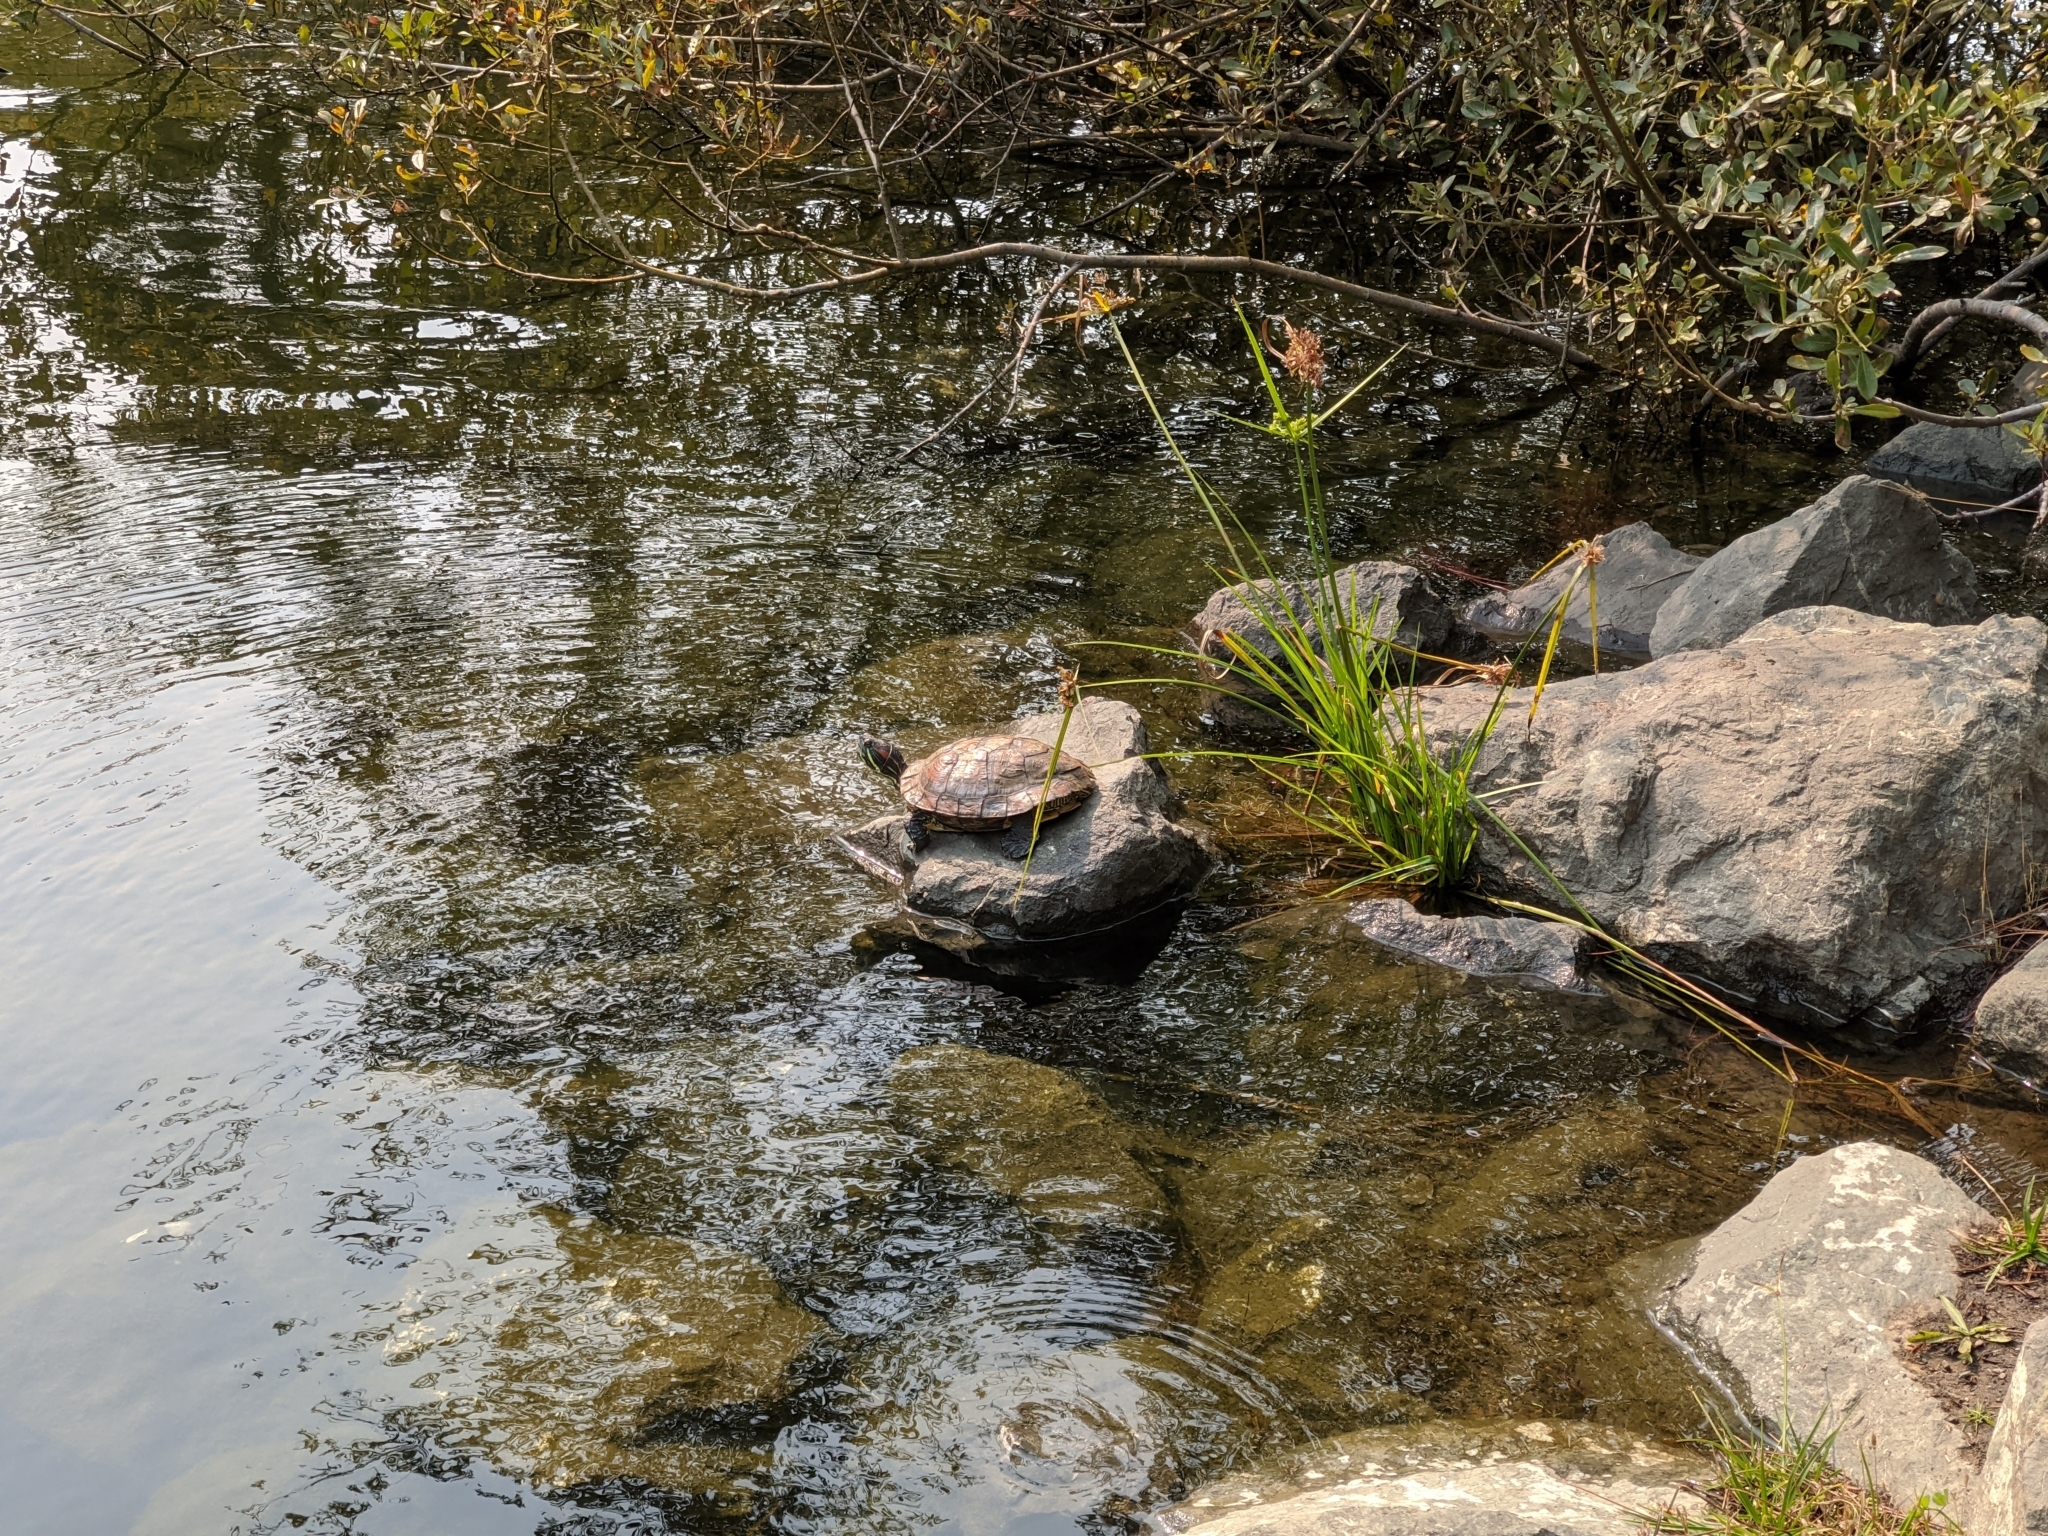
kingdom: Animalia
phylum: Chordata
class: Testudines
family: Emydidae
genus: Trachemys
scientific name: Trachemys scripta
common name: Slider
